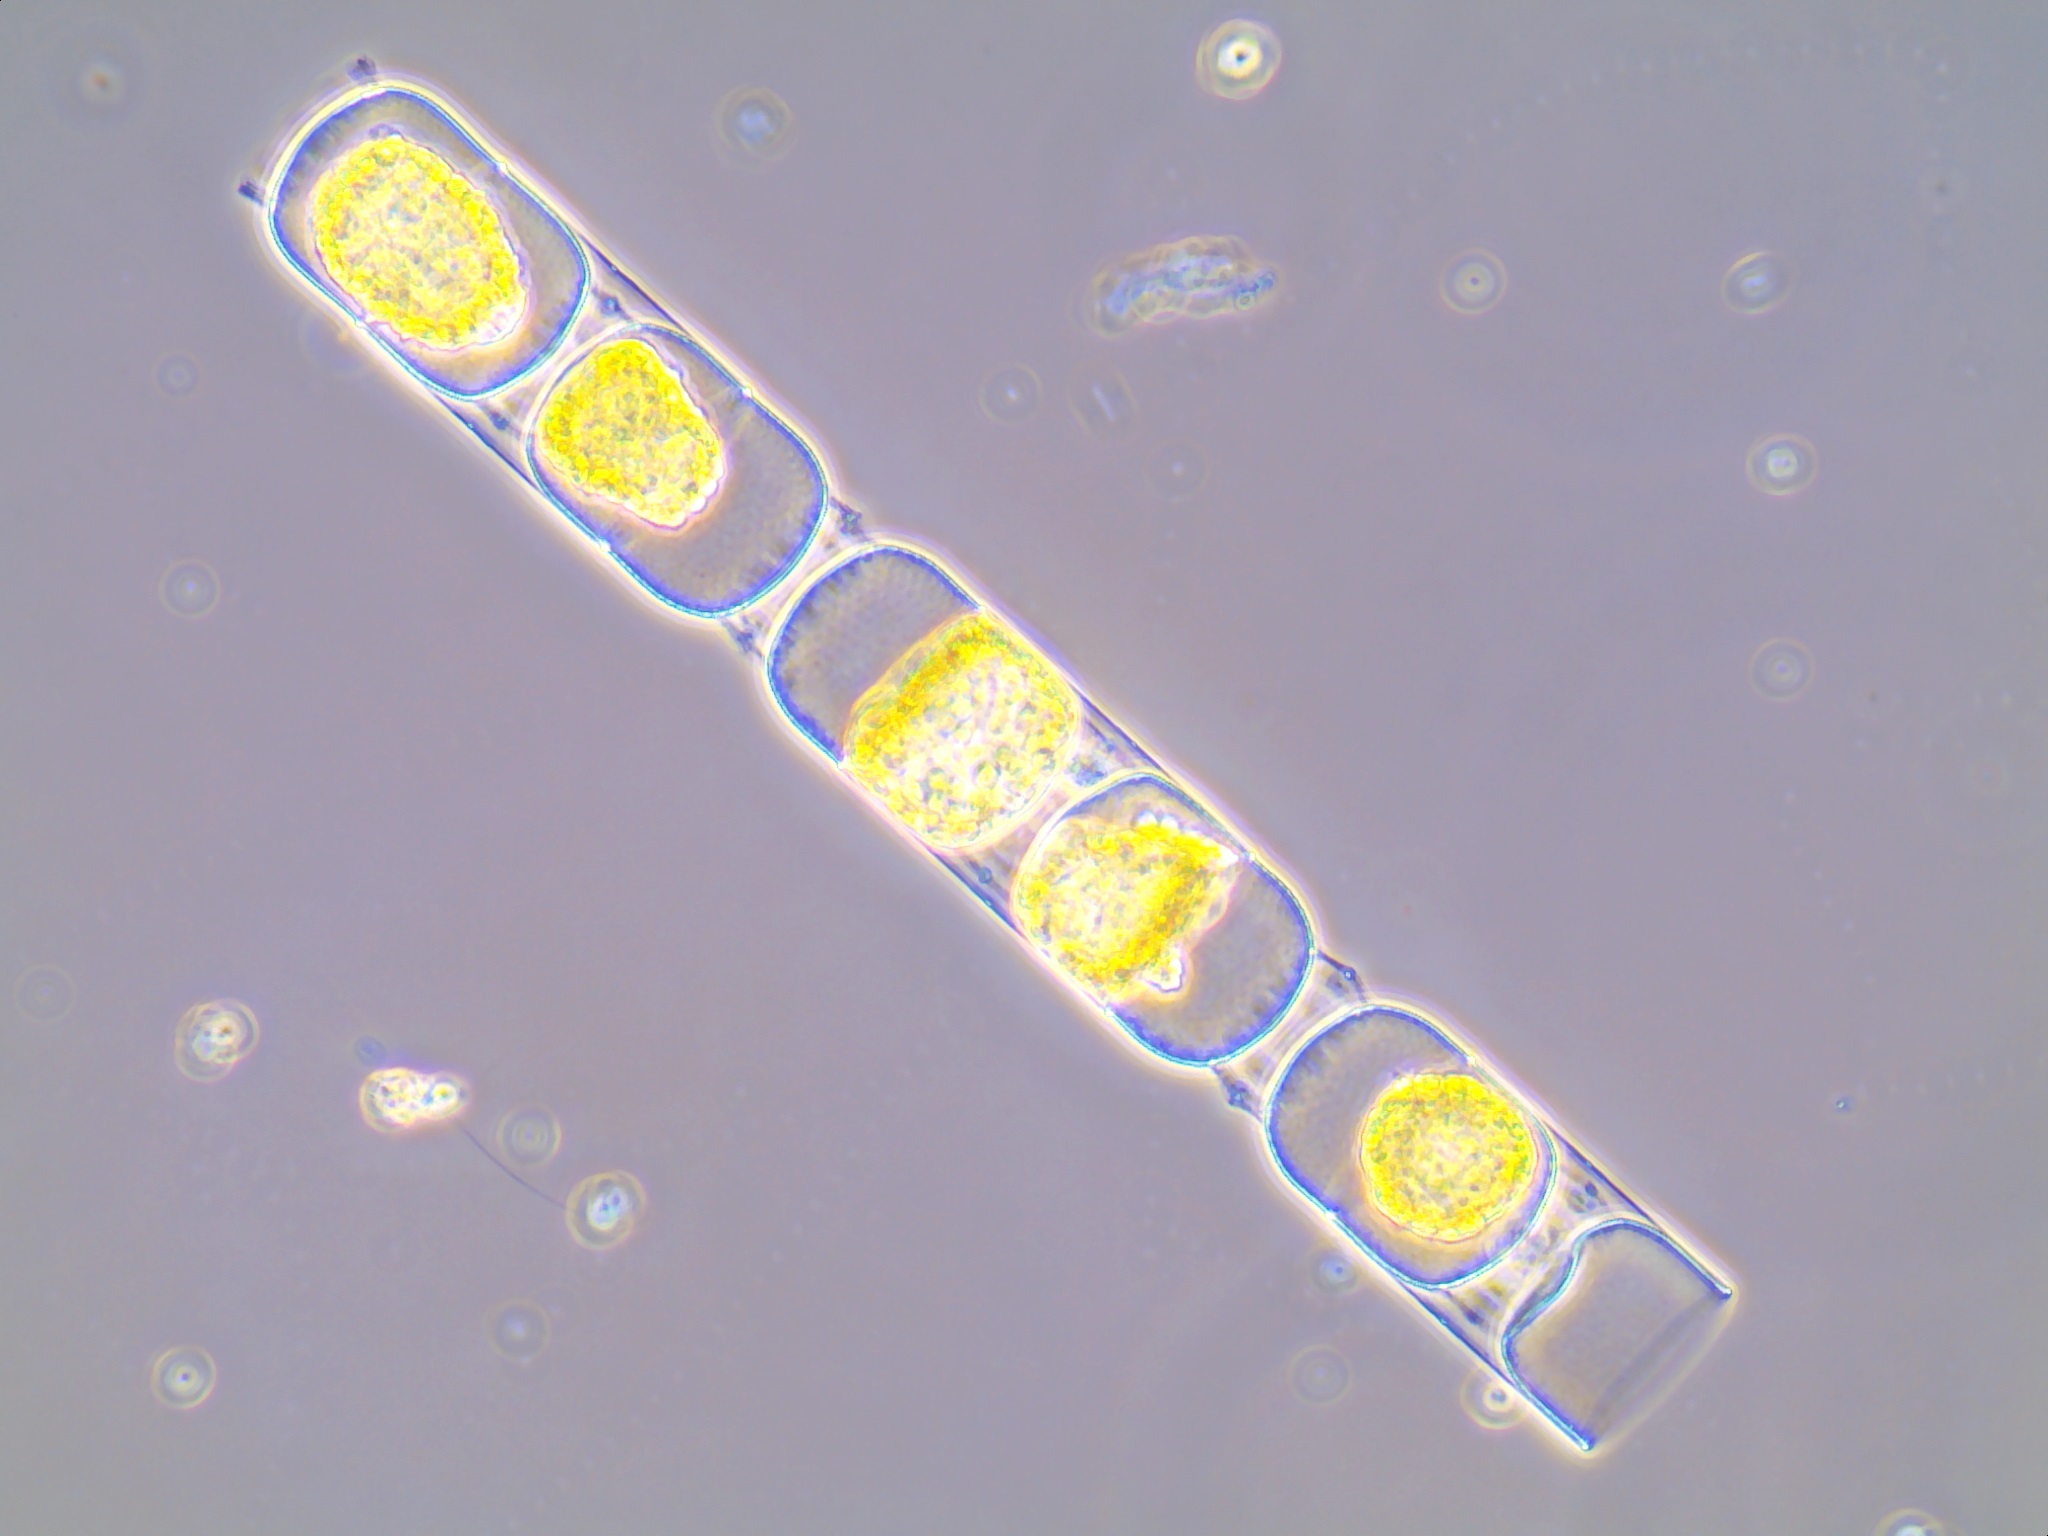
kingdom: Chromista
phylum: Ochrophyta
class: Bacillariophyceae
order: Melosirales
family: Stephanopyxidaceae
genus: Eupyxidicula
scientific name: Eupyxidicula turris
